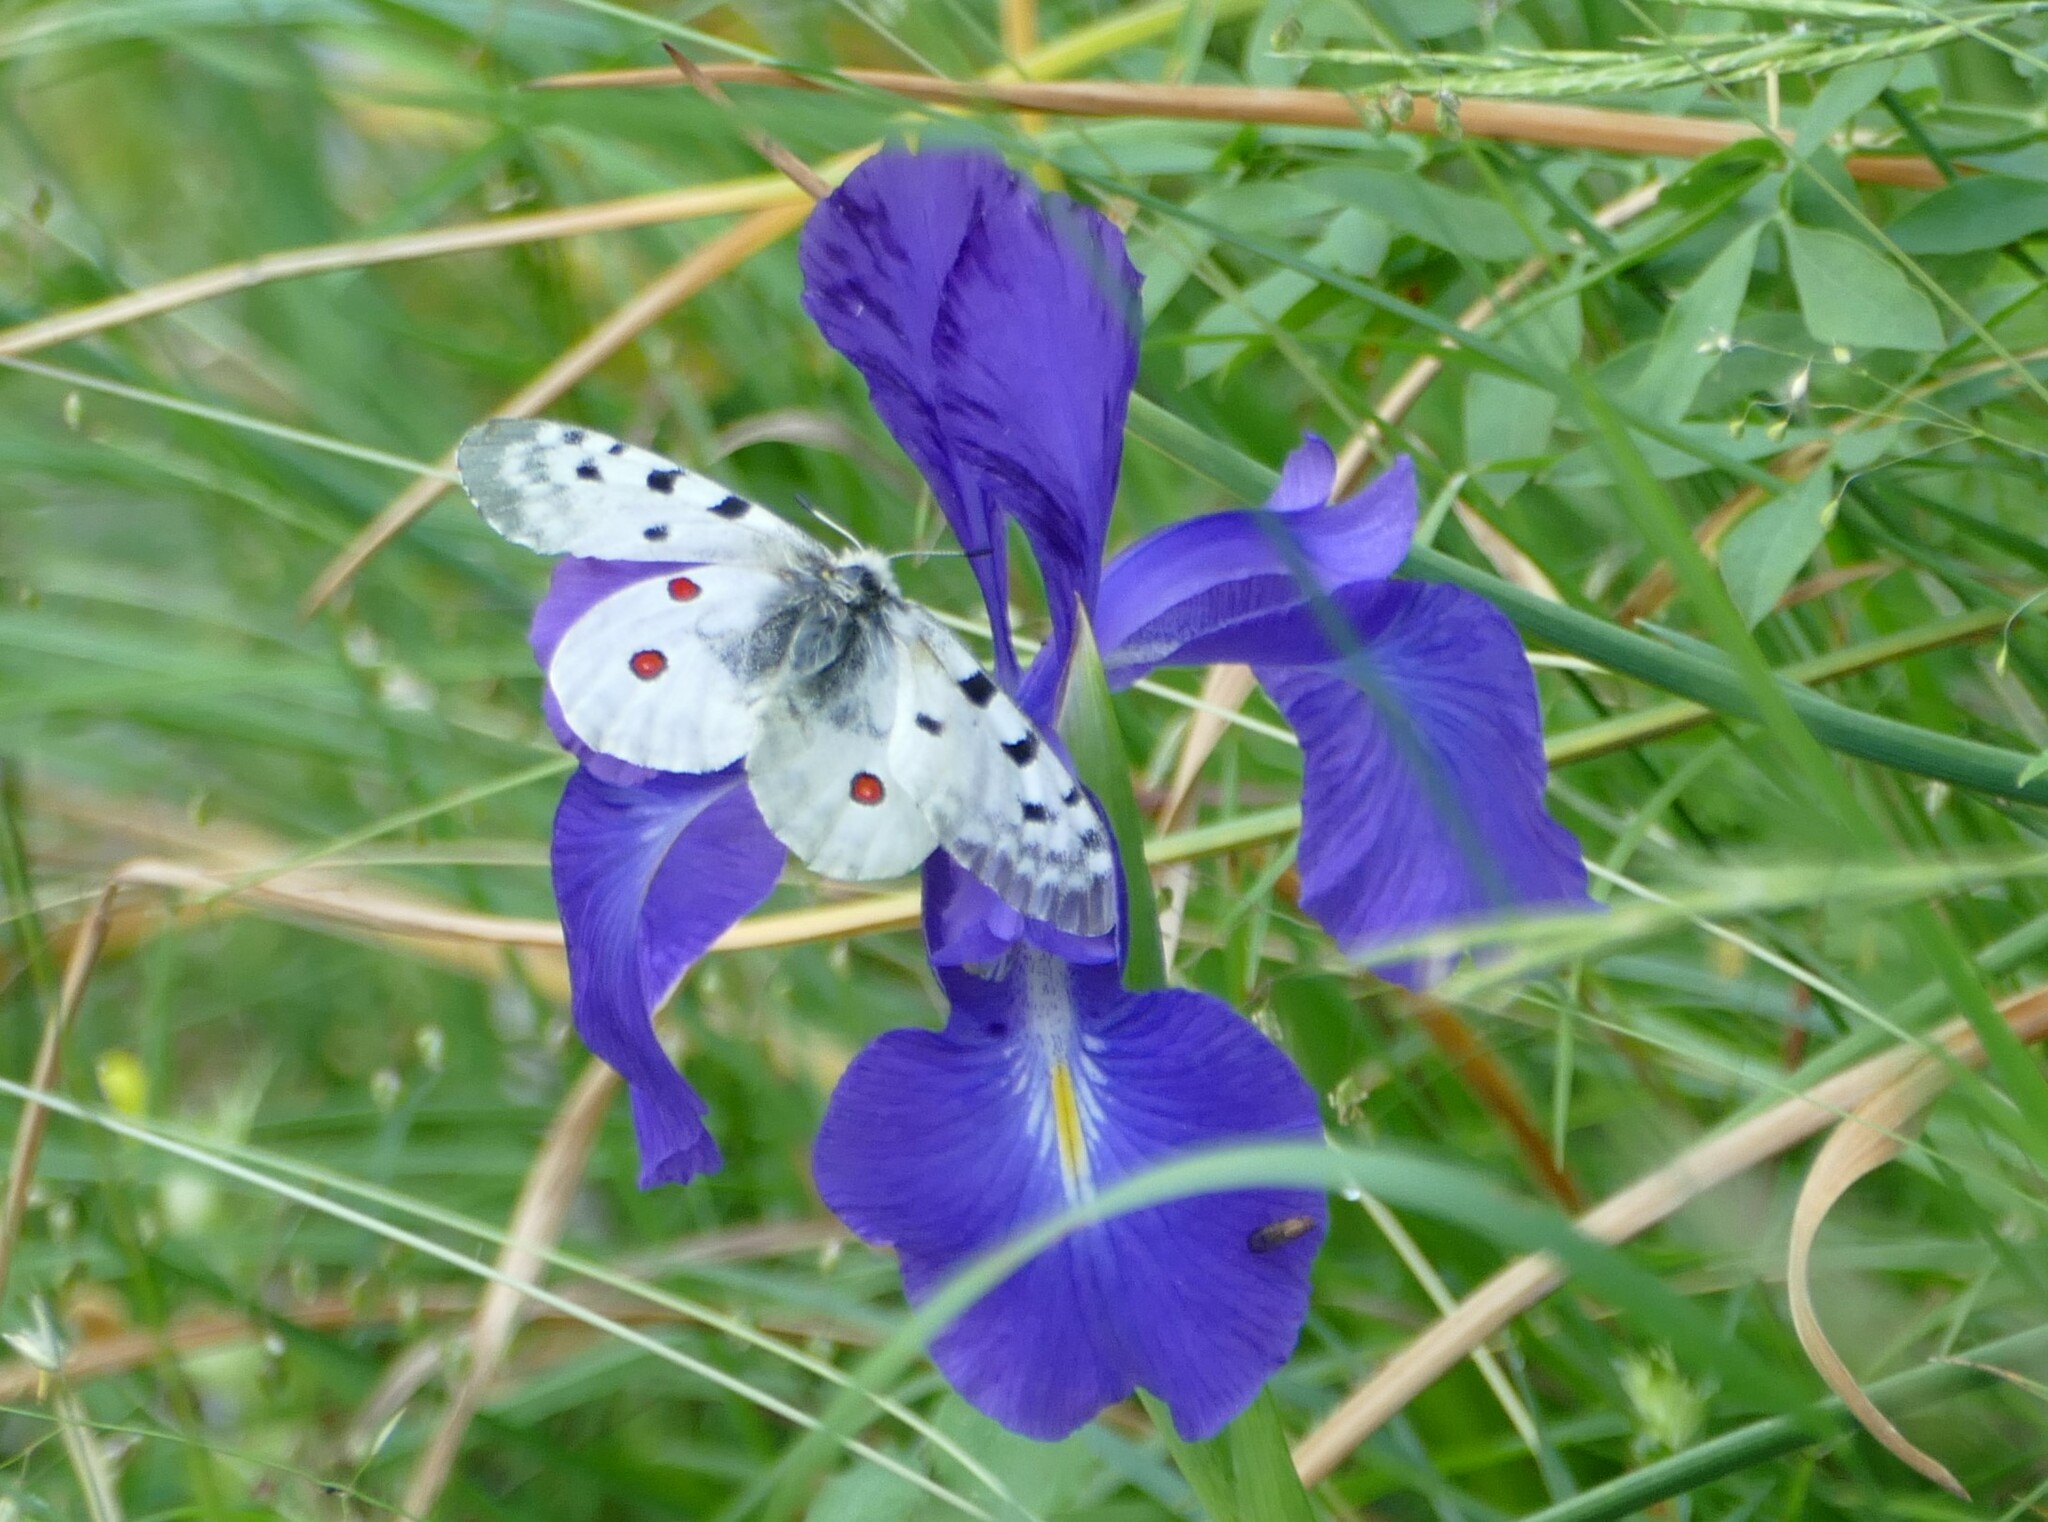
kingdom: Animalia
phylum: Arthropoda
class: Insecta
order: Lepidoptera
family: Papilionidae
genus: Parnassius
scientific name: Parnassius apollo
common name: Apollo
